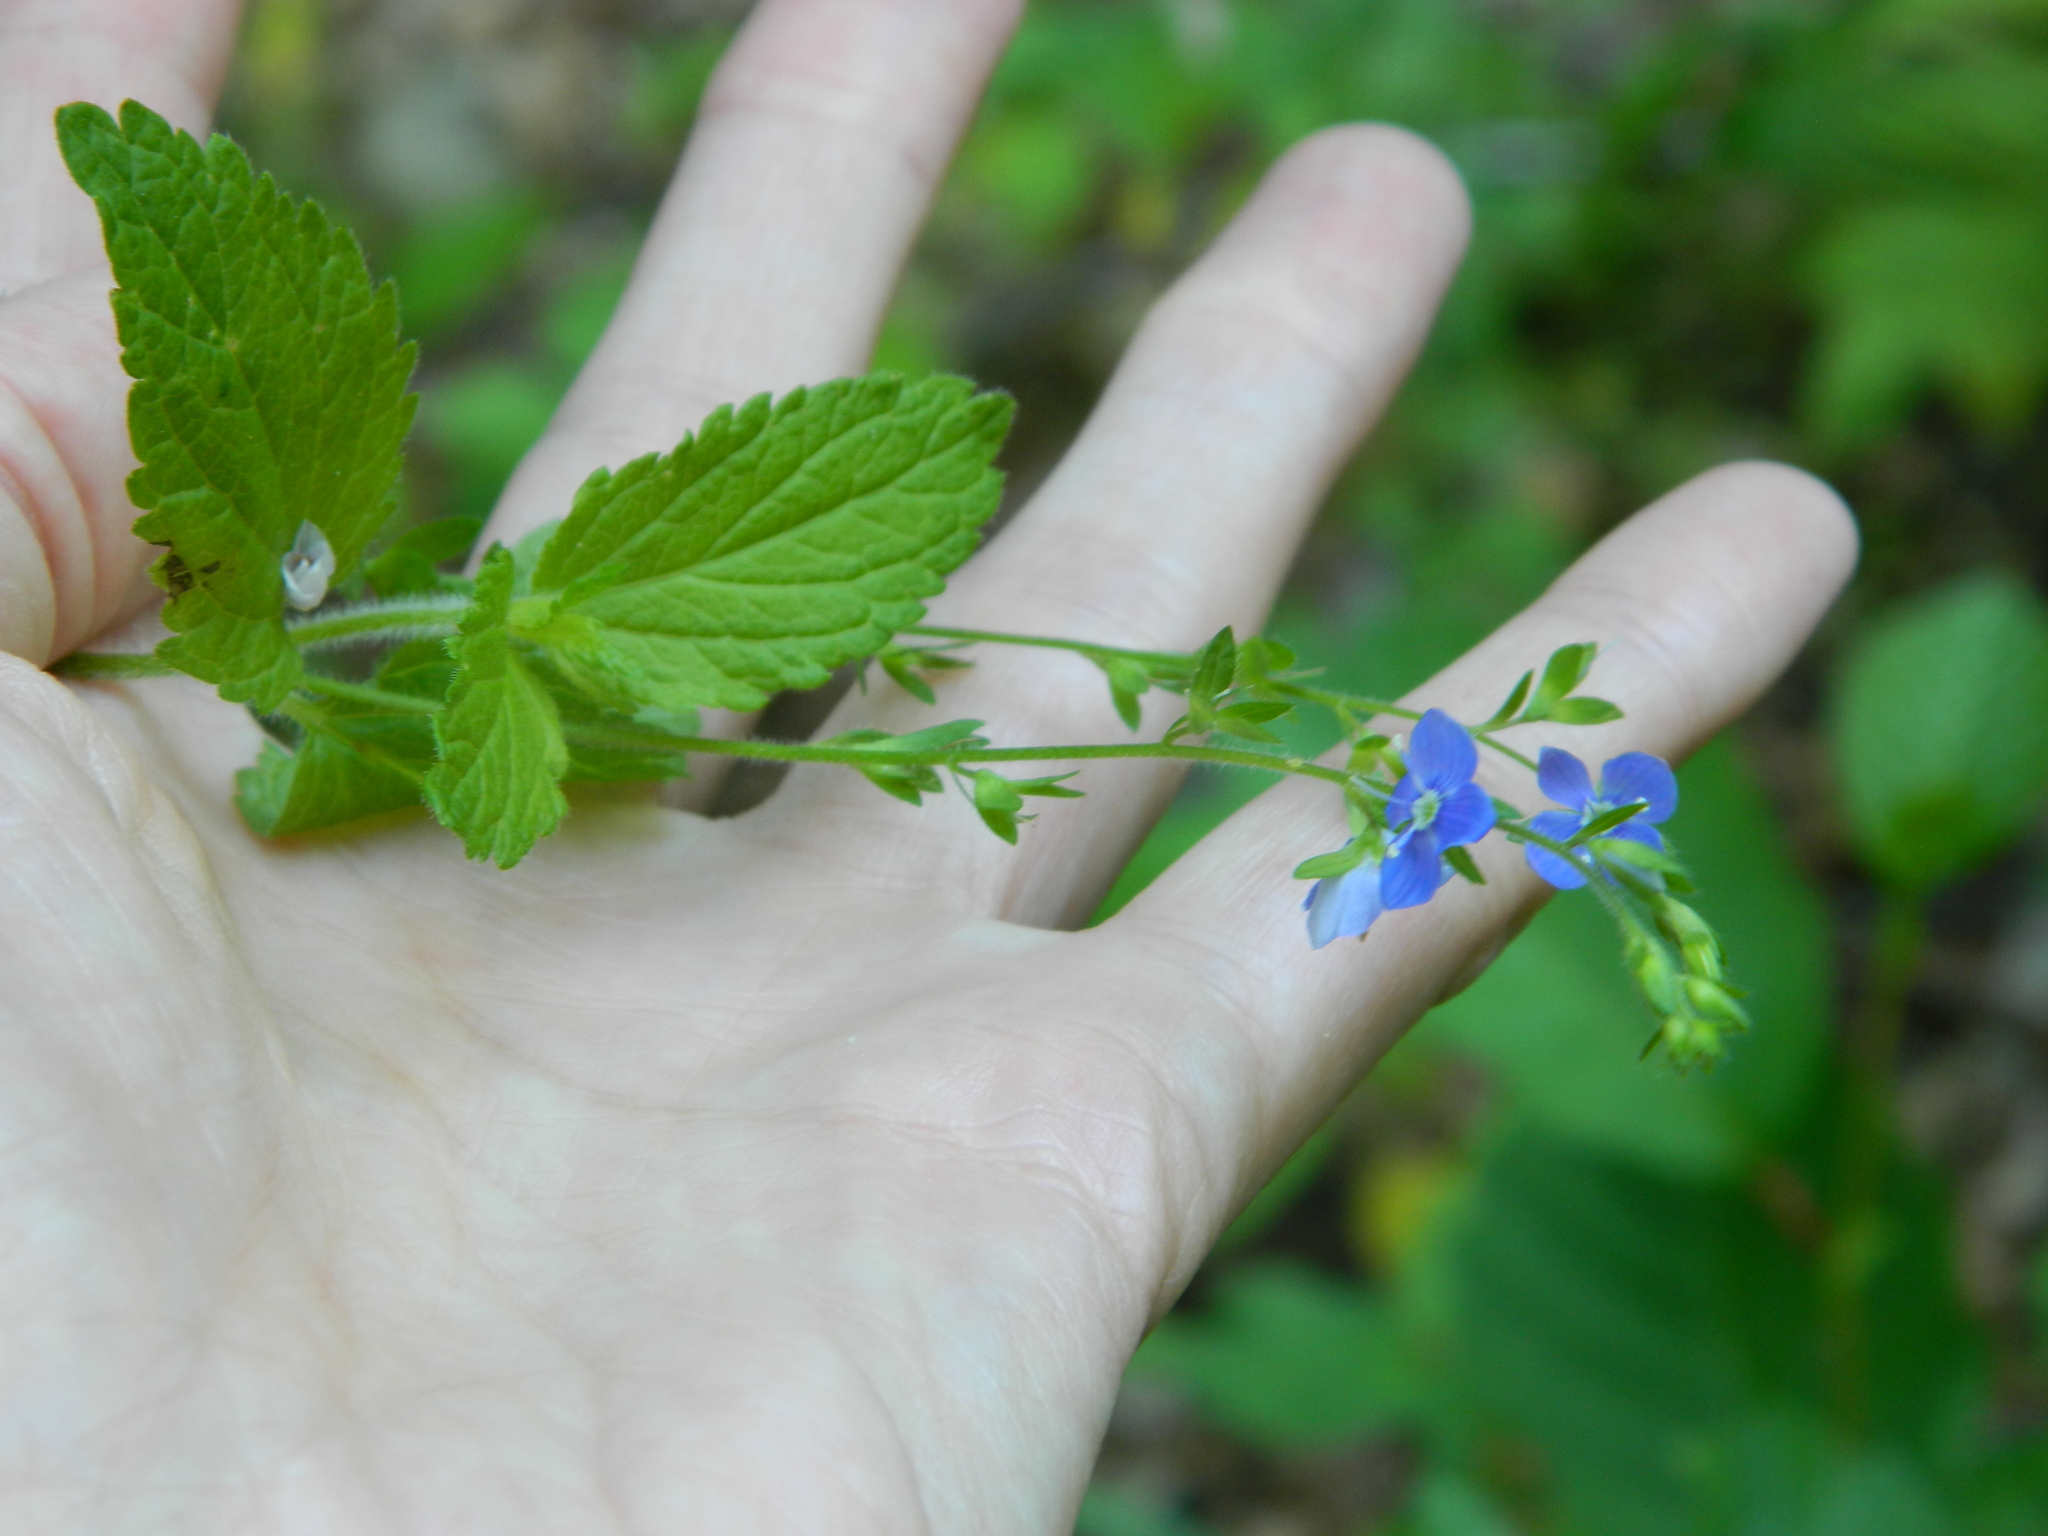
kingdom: Plantae
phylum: Tracheophyta
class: Magnoliopsida
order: Lamiales
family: Plantaginaceae
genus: Veronica
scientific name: Veronica magna
